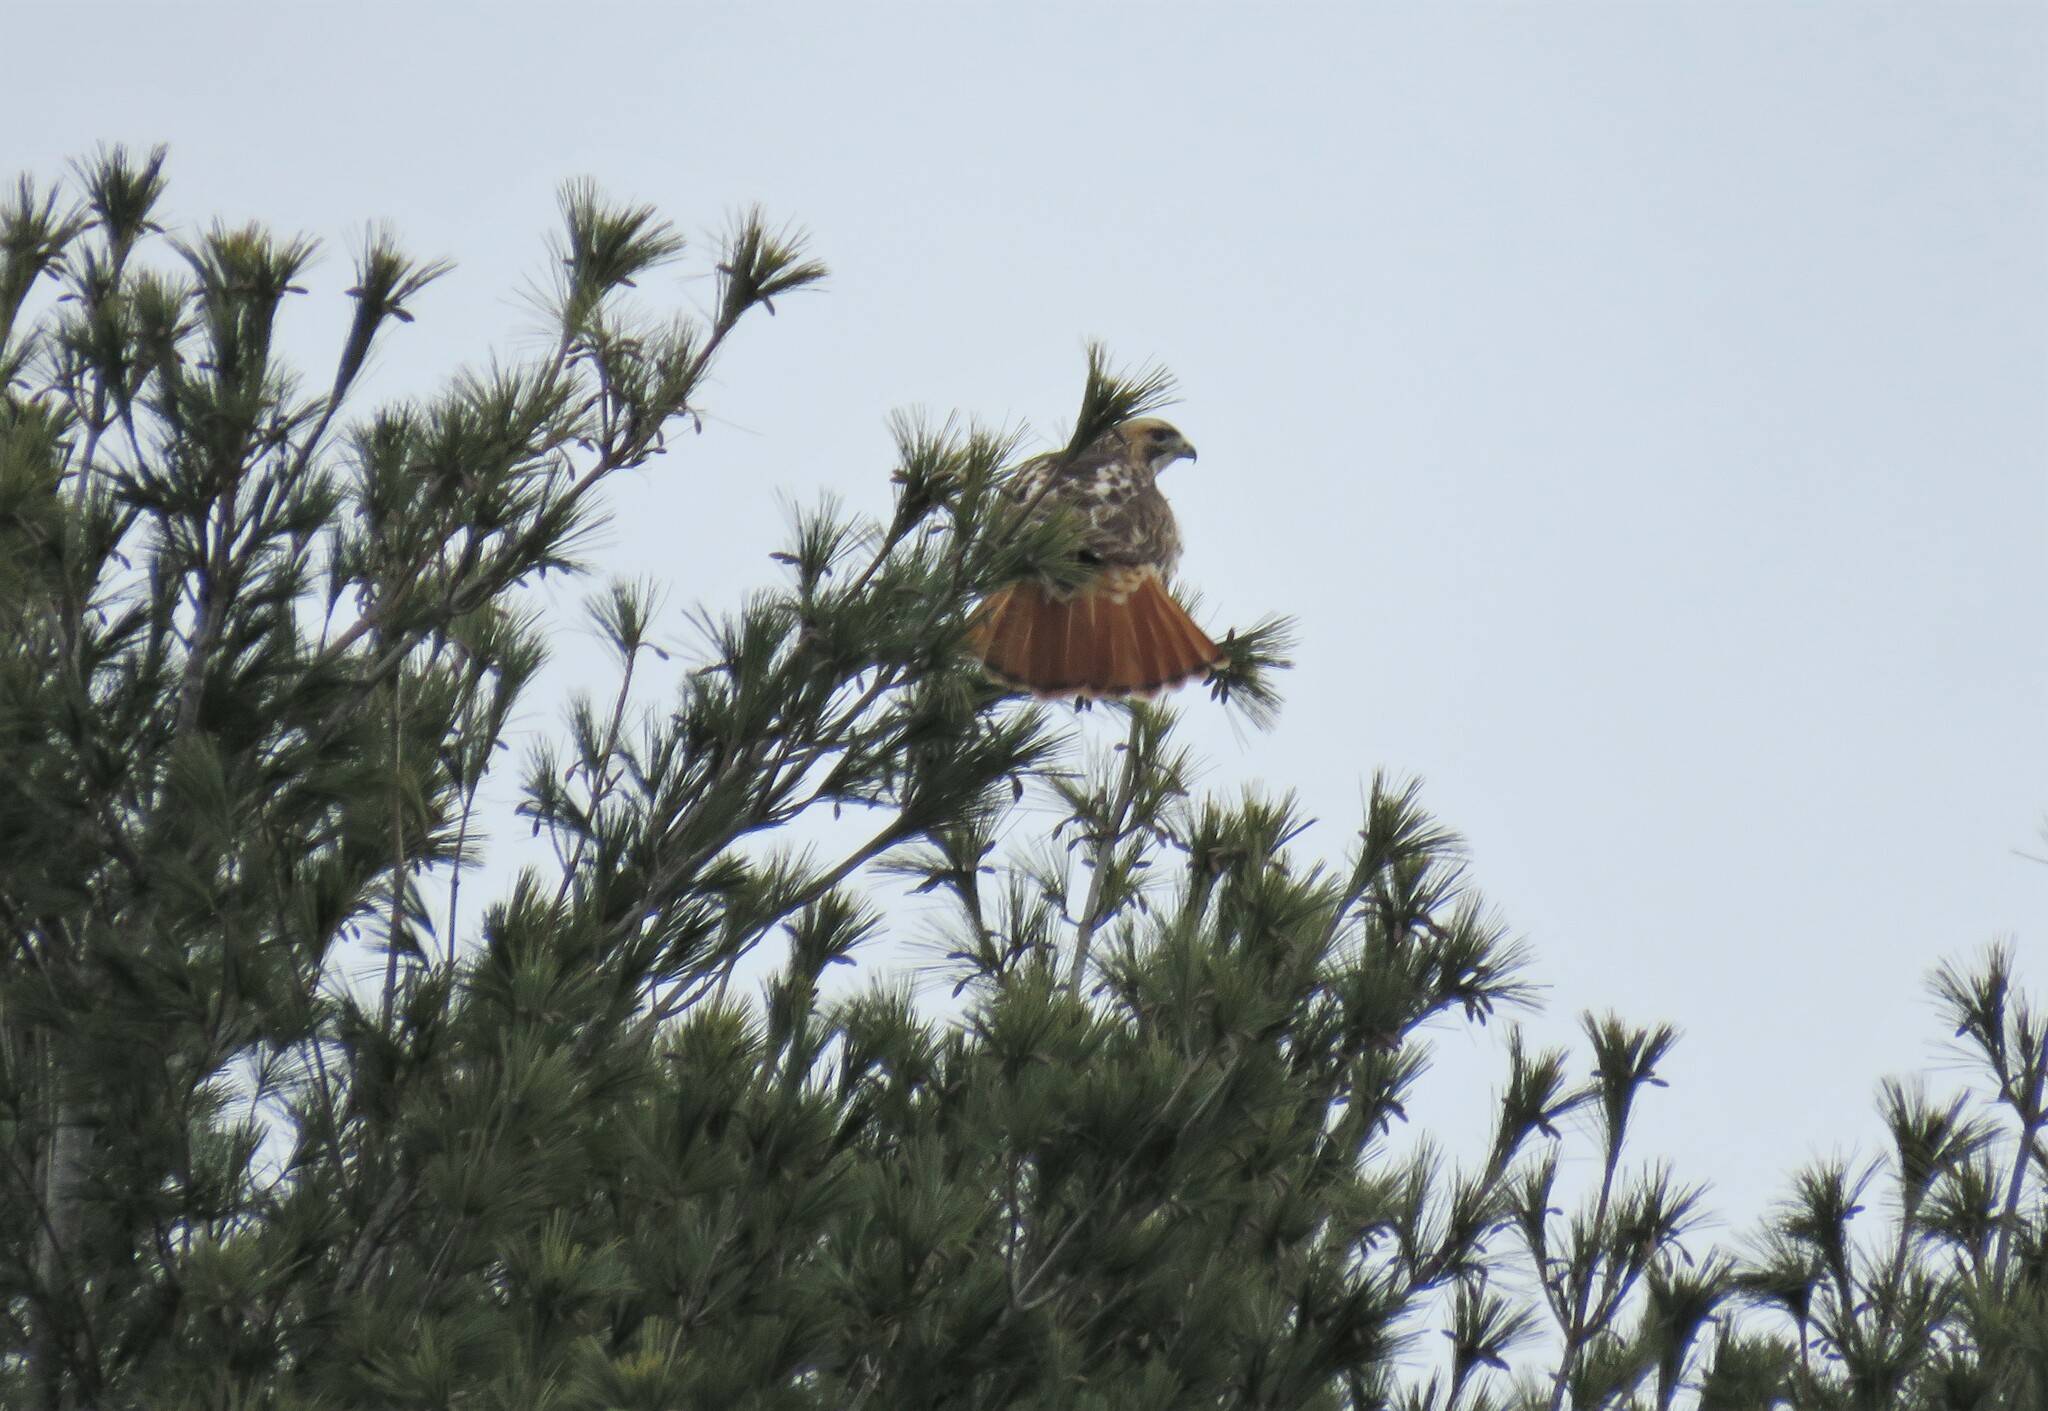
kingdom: Animalia
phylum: Chordata
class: Aves
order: Accipitriformes
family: Accipitridae
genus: Buteo
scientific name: Buteo jamaicensis
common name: Red-tailed hawk
